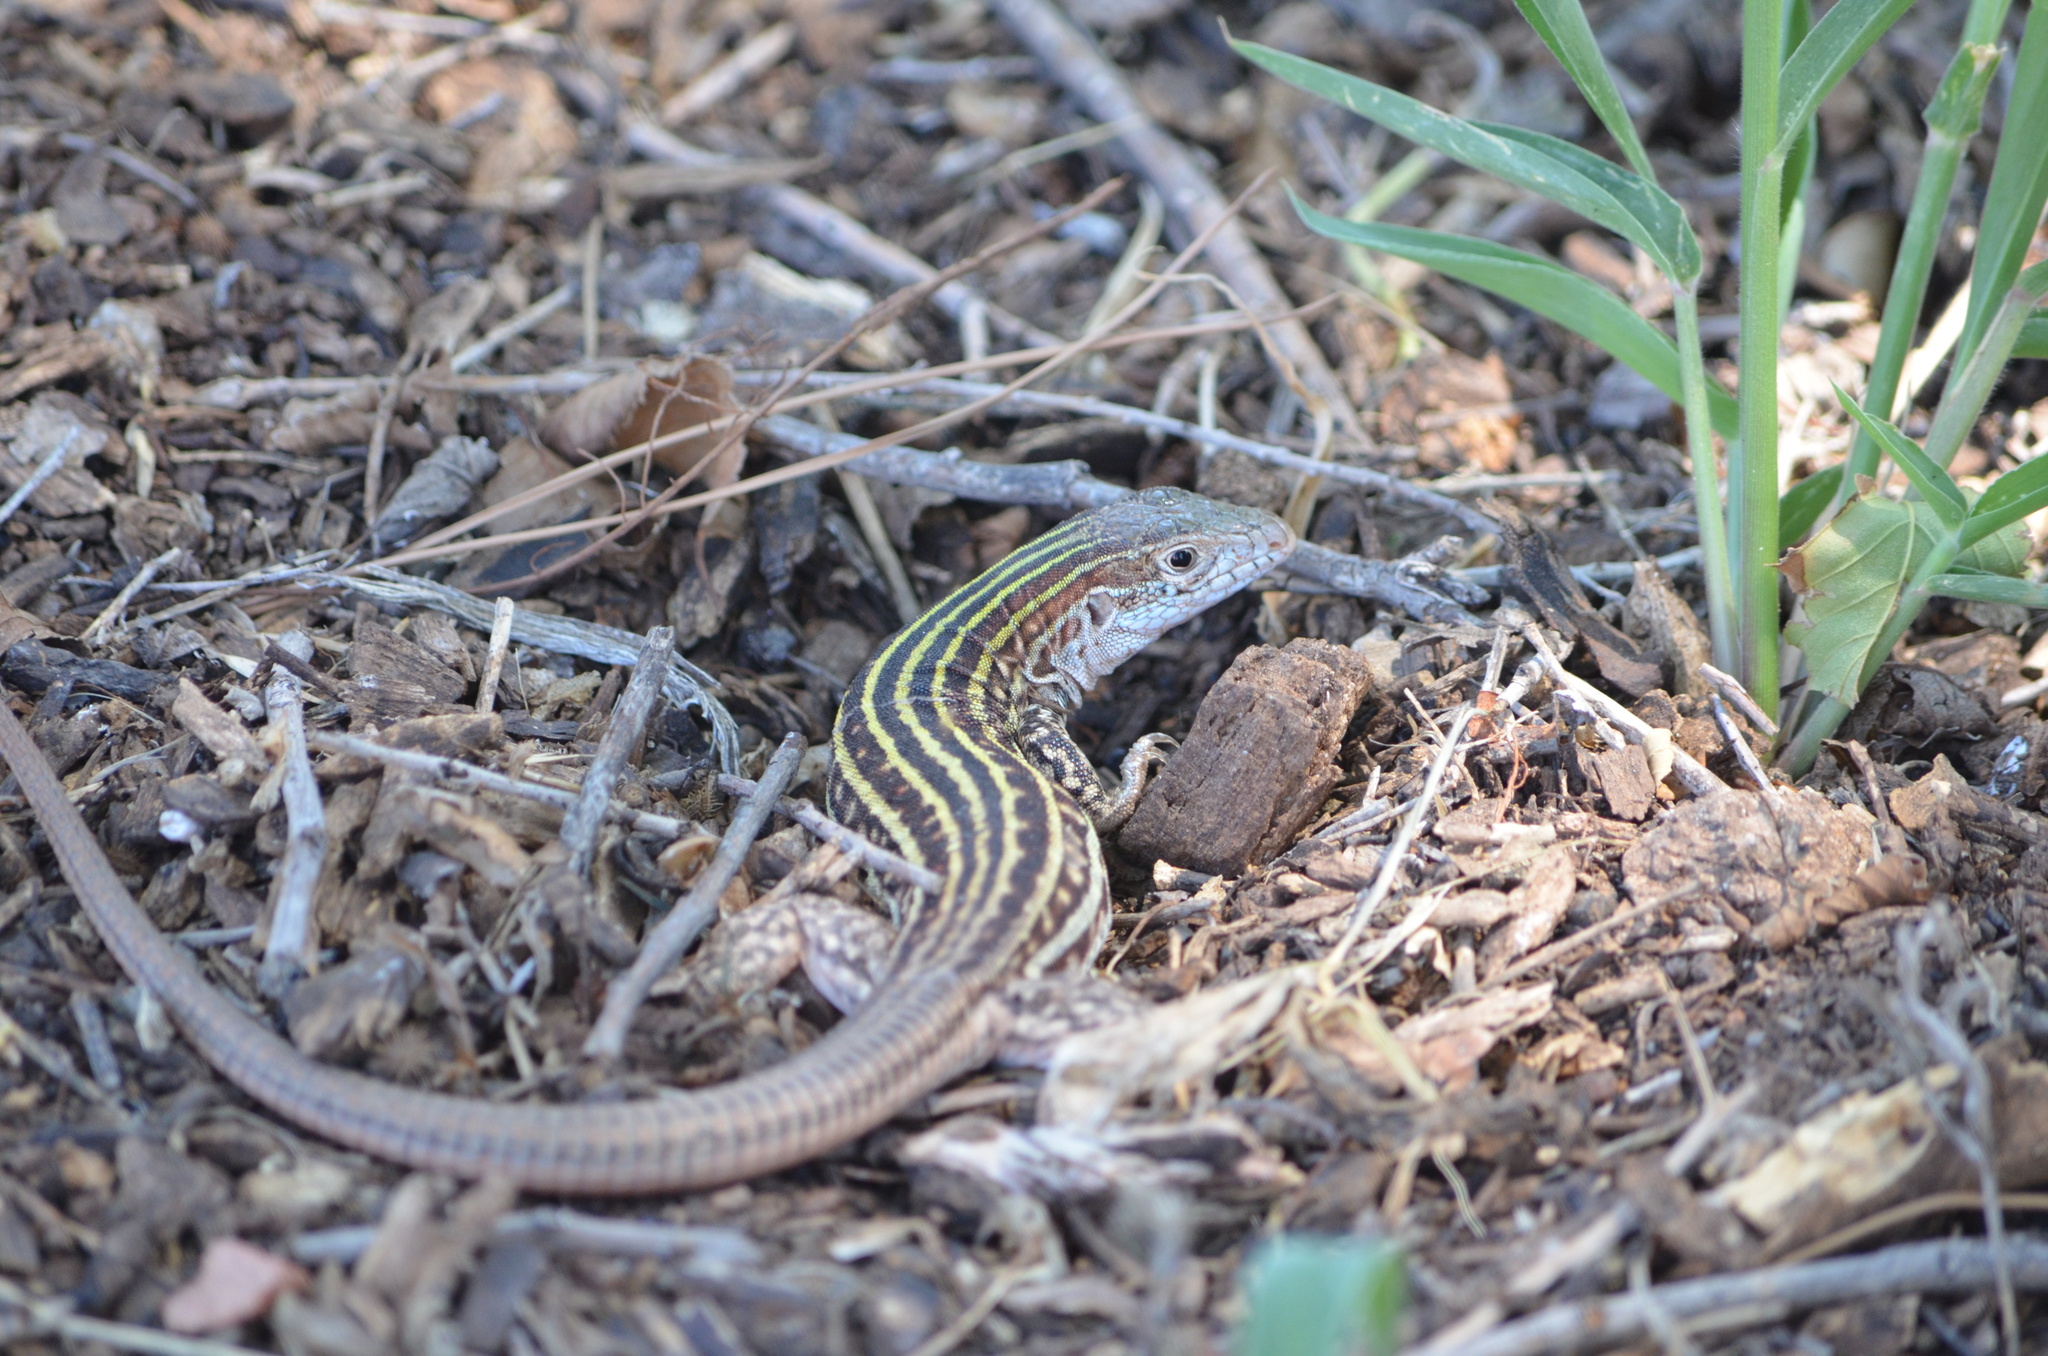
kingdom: Animalia
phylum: Chordata
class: Squamata
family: Teiidae
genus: Aspidoscelis
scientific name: Aspidoscelis gularis
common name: Eastern spotted whiptail
